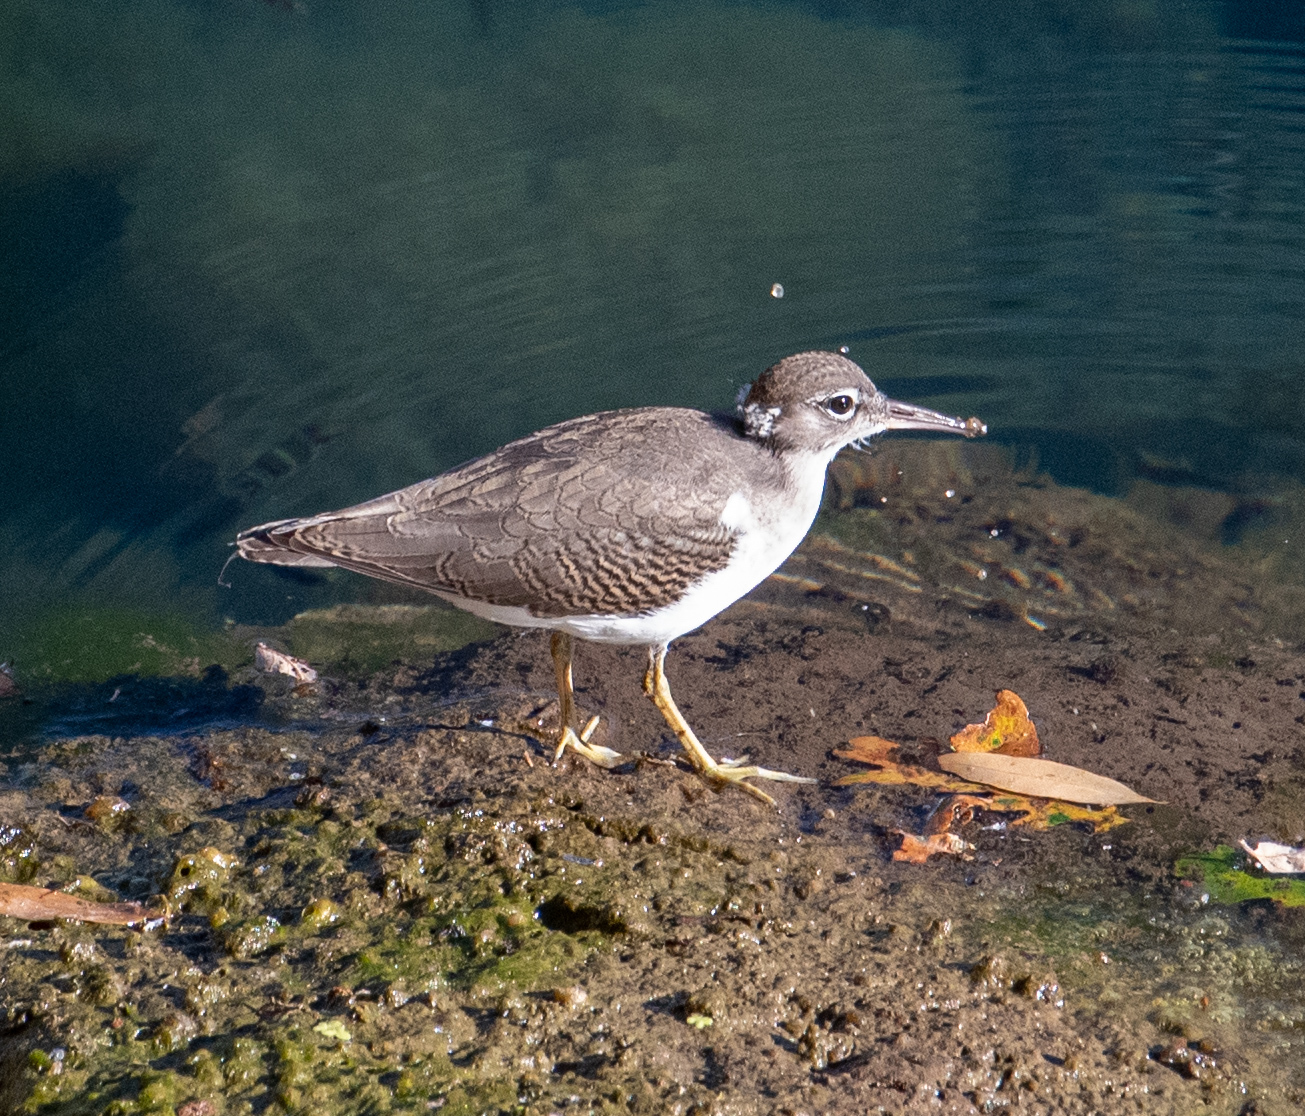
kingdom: Animalia
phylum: Chordata
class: Aves
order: Charadriiformes
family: Scolopacidae
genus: Actitis
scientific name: Actitis macularius
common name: Spotted sandpiper
